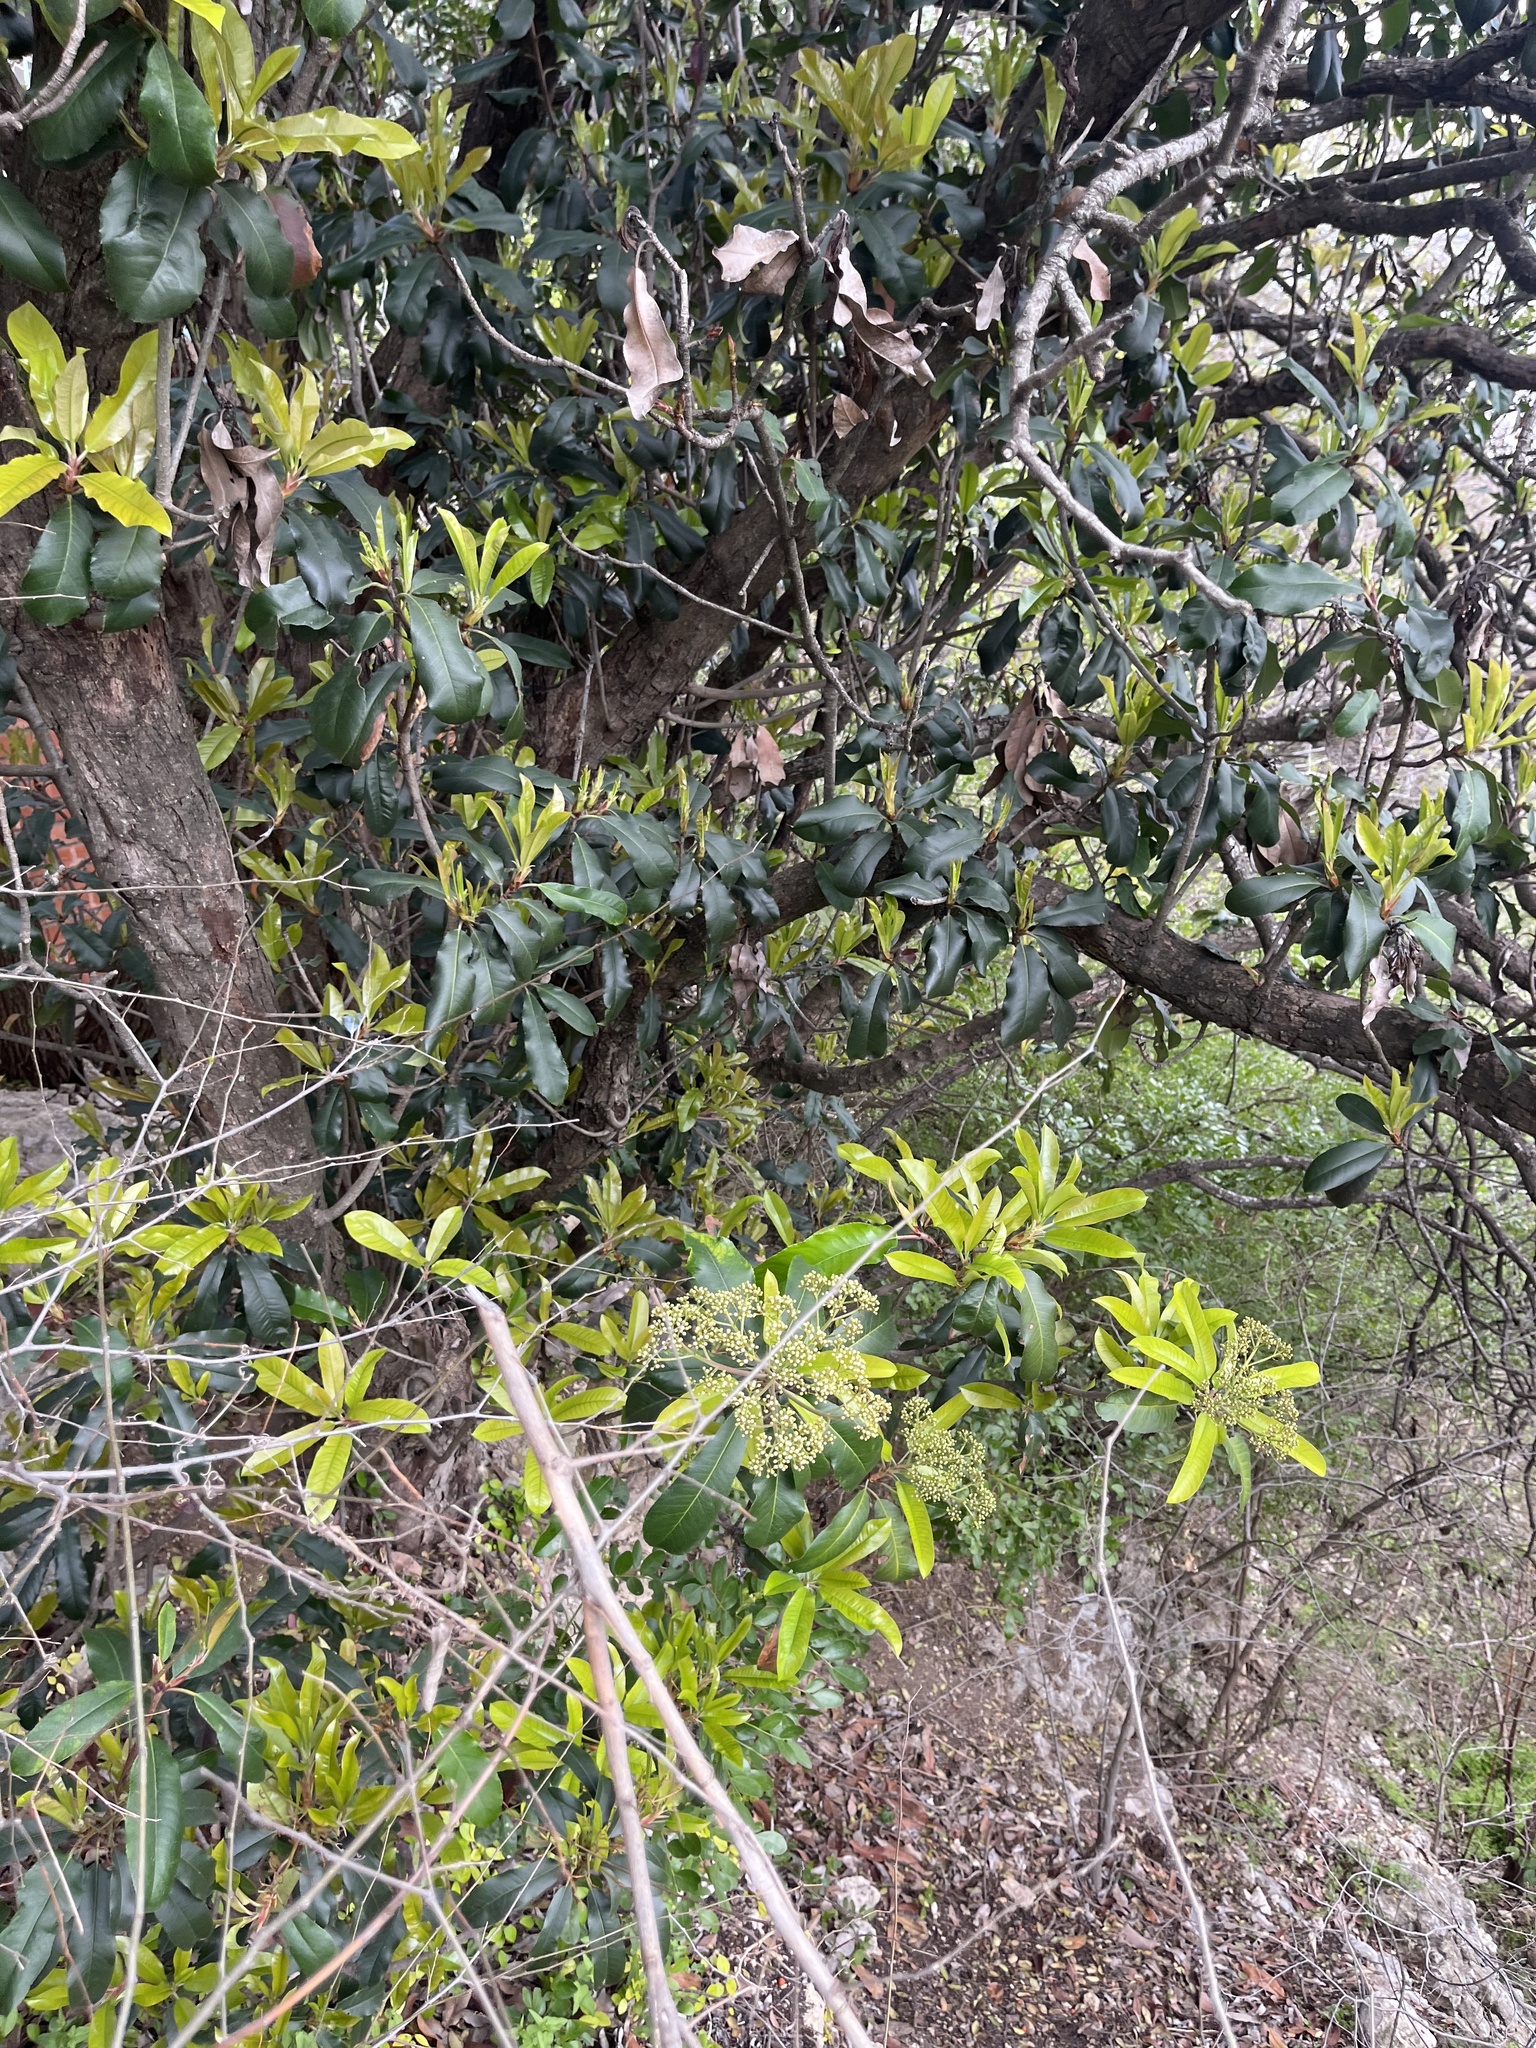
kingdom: Plantae
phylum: Tracheophyta
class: Magnoliopsida
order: Rosales
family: Rosaceae
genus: Photinia
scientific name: Photinia serratifolia
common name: Taiwanese photinia
